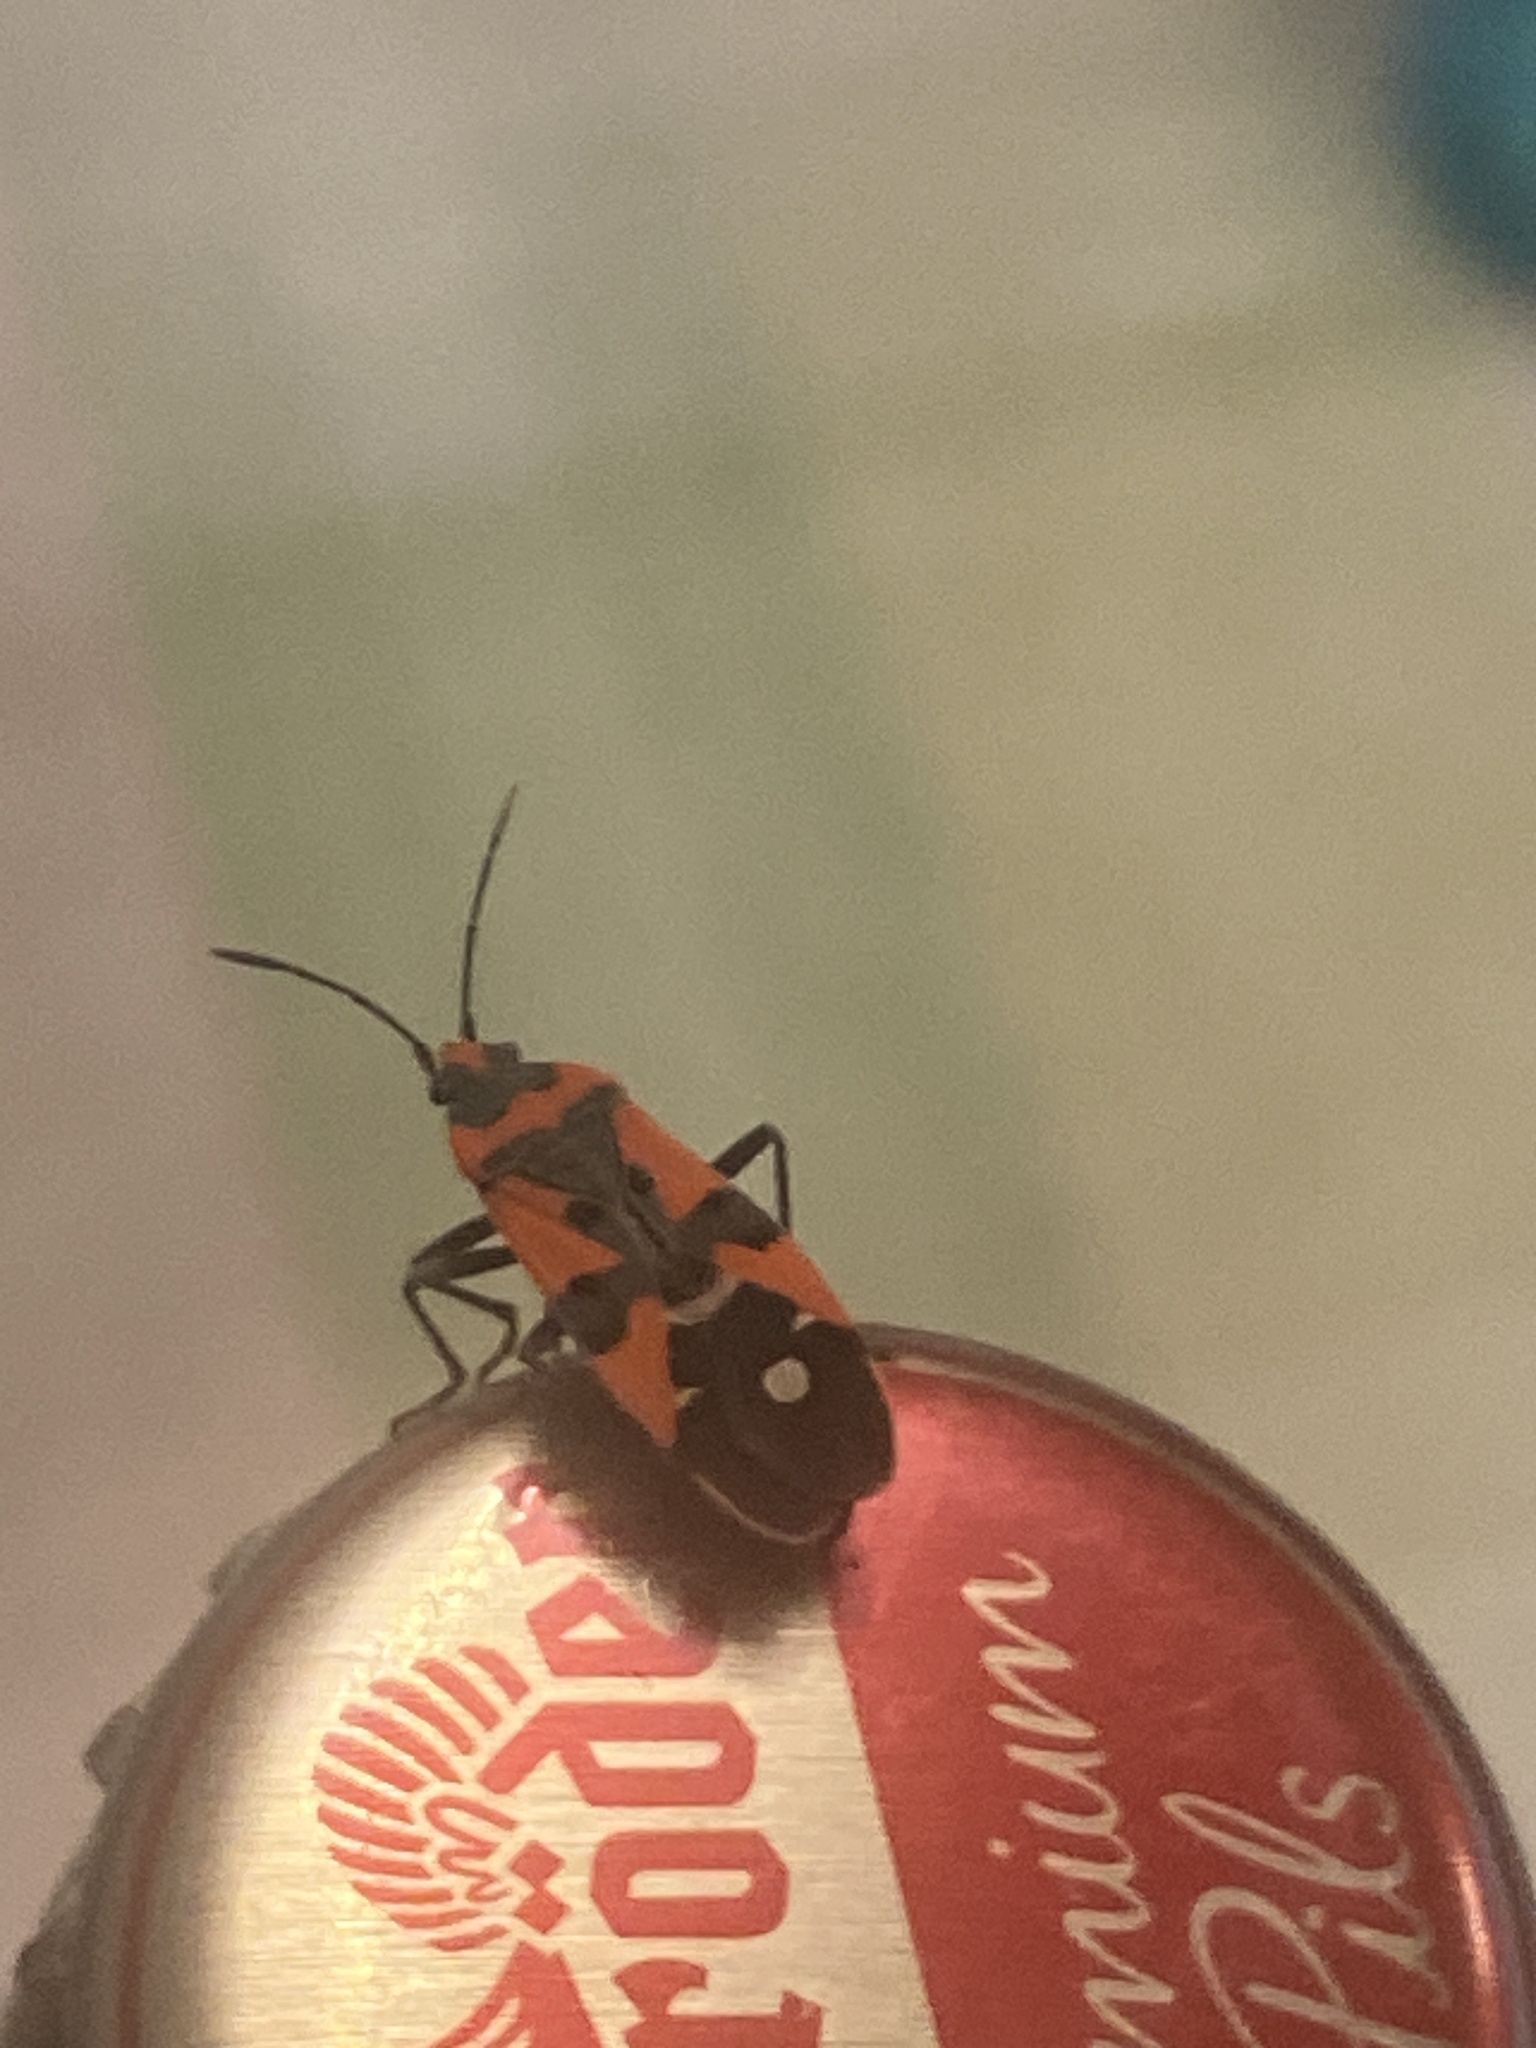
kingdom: Animalia
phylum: Arthropoda
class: Insecta
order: Hemiptera
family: Lygaeidae
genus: Lygaeus
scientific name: Lygaeus equestris
